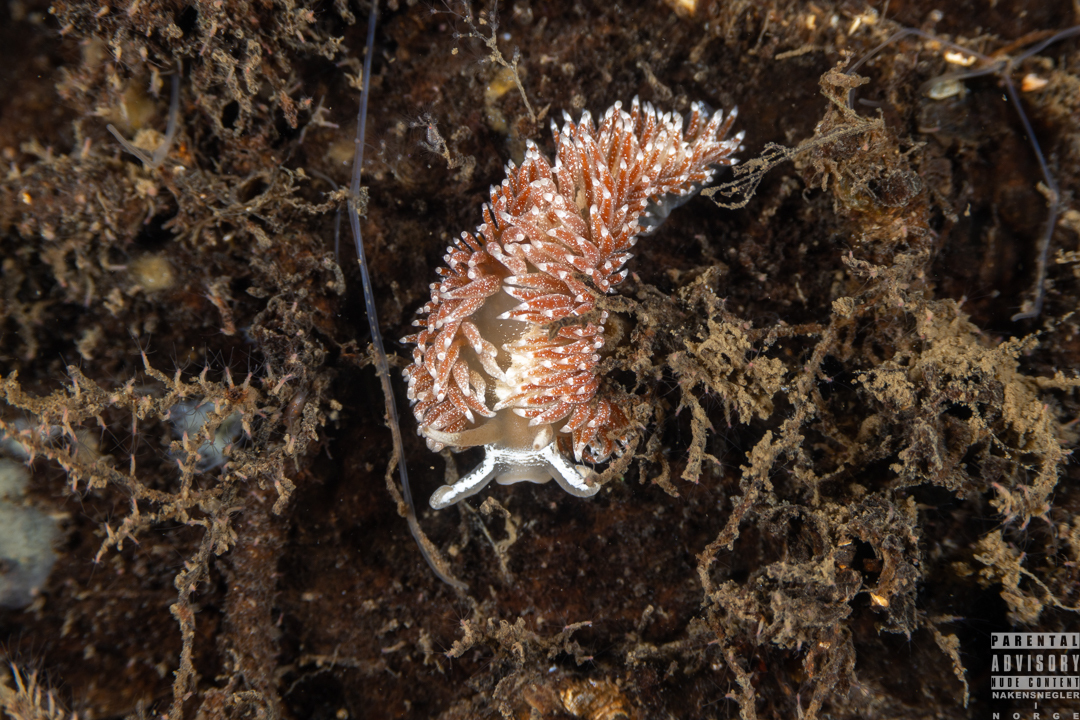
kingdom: Animalia
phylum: Mollusca
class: Gastropoda
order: Nudibranchia
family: Coryphellidae
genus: Coryphella
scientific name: Coryphella monicae
